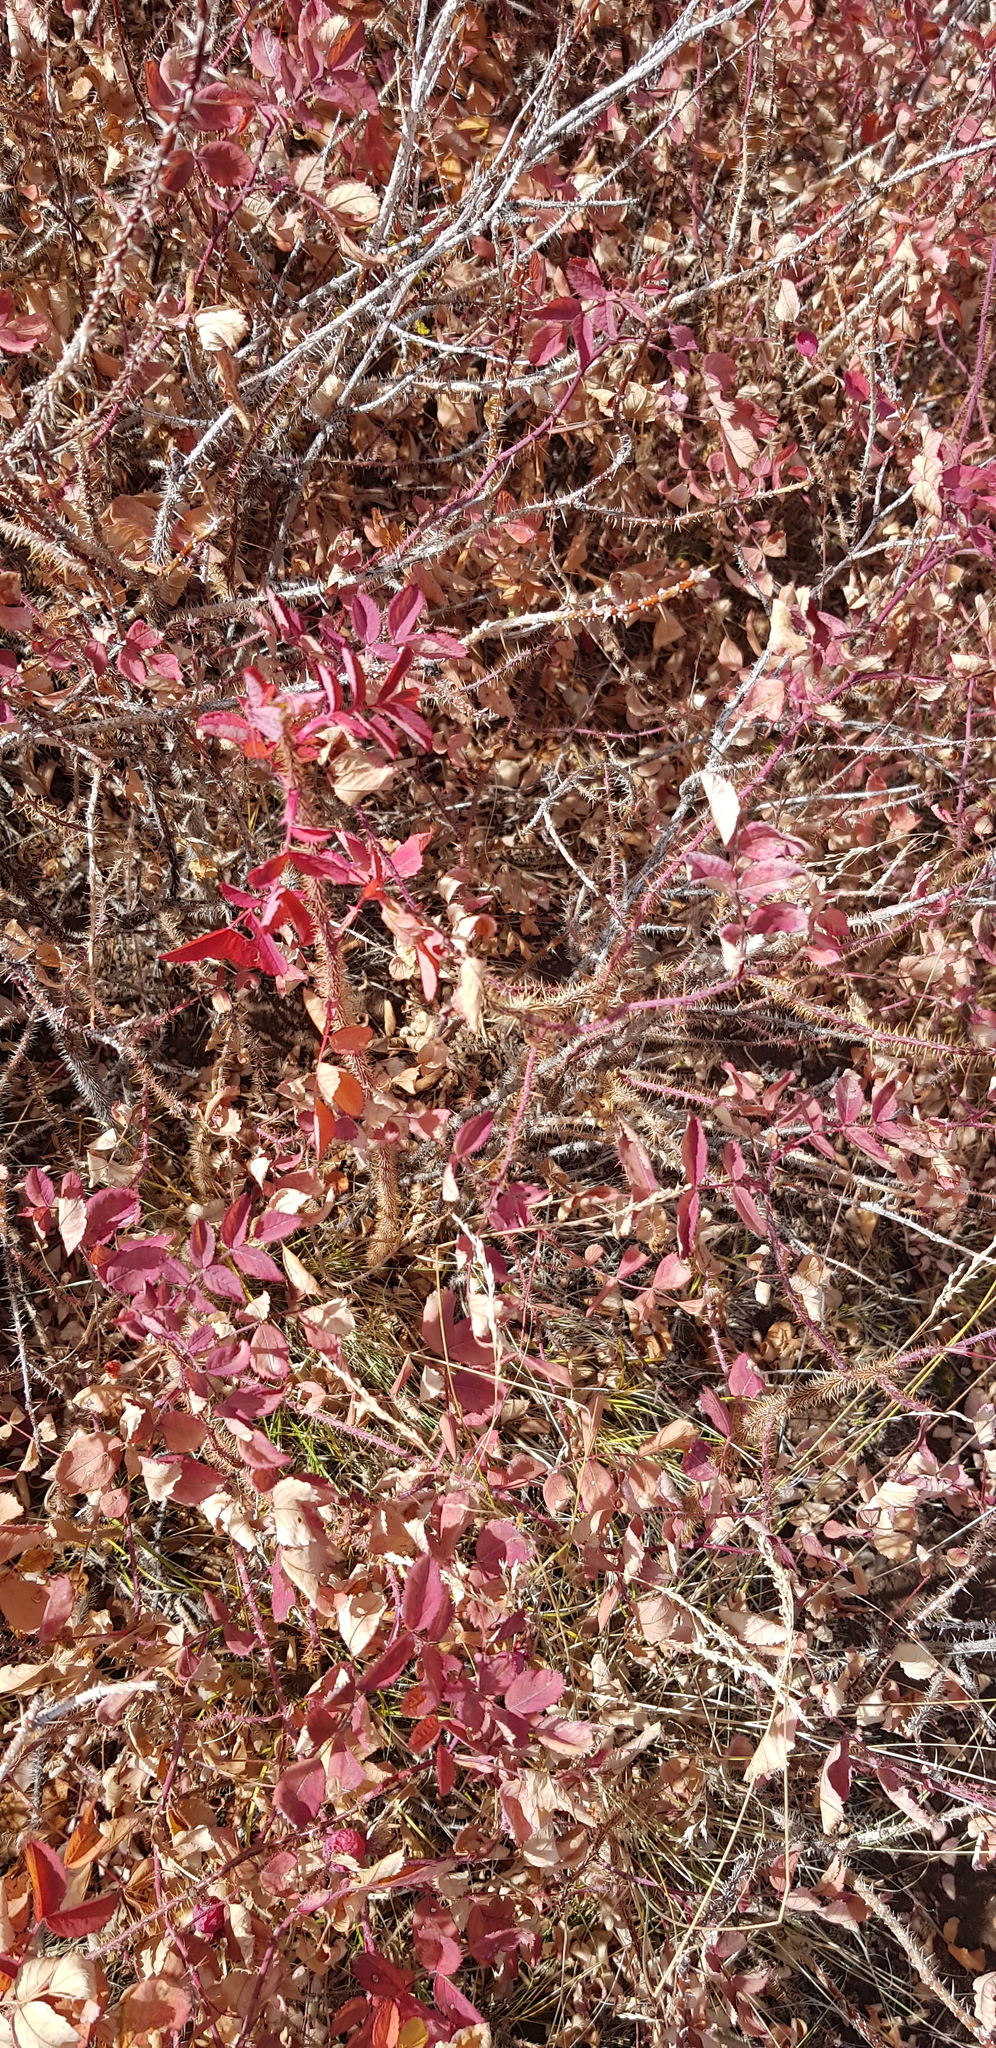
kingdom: Plantae
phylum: Tracheophyta
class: Magnoliopsida
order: Rosales
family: Rosaceae
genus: Rosa
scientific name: Rosa acicularis
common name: Prickly rose
